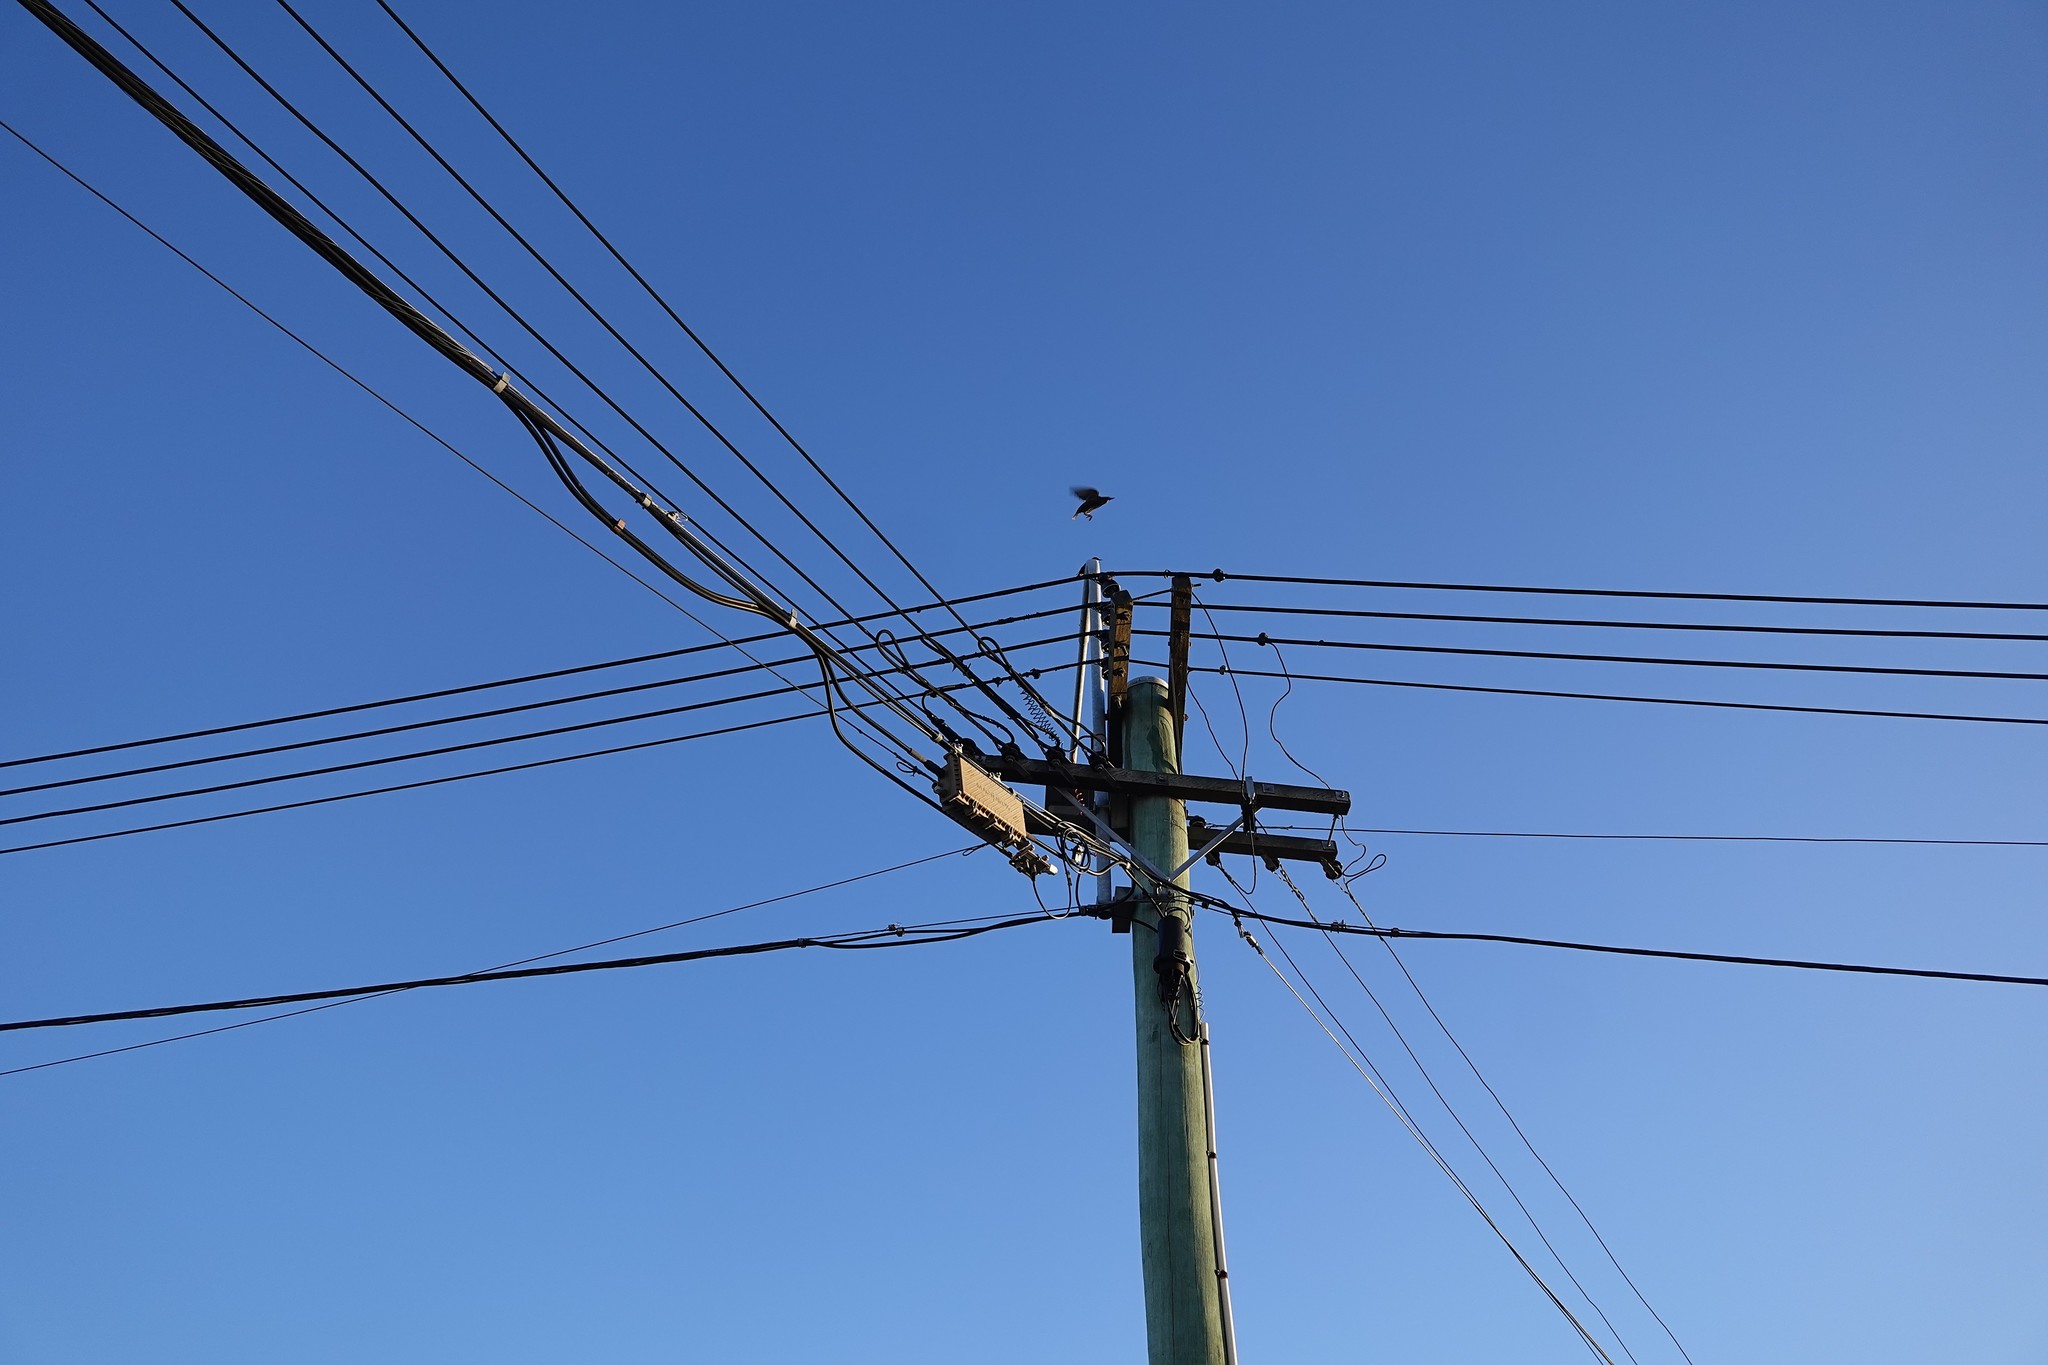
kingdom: Animalia
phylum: Chordata
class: Aves
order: Passeriformes
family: Sturnidae
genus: Sturnus
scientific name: Sturnus vulgaris
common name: Common starling
